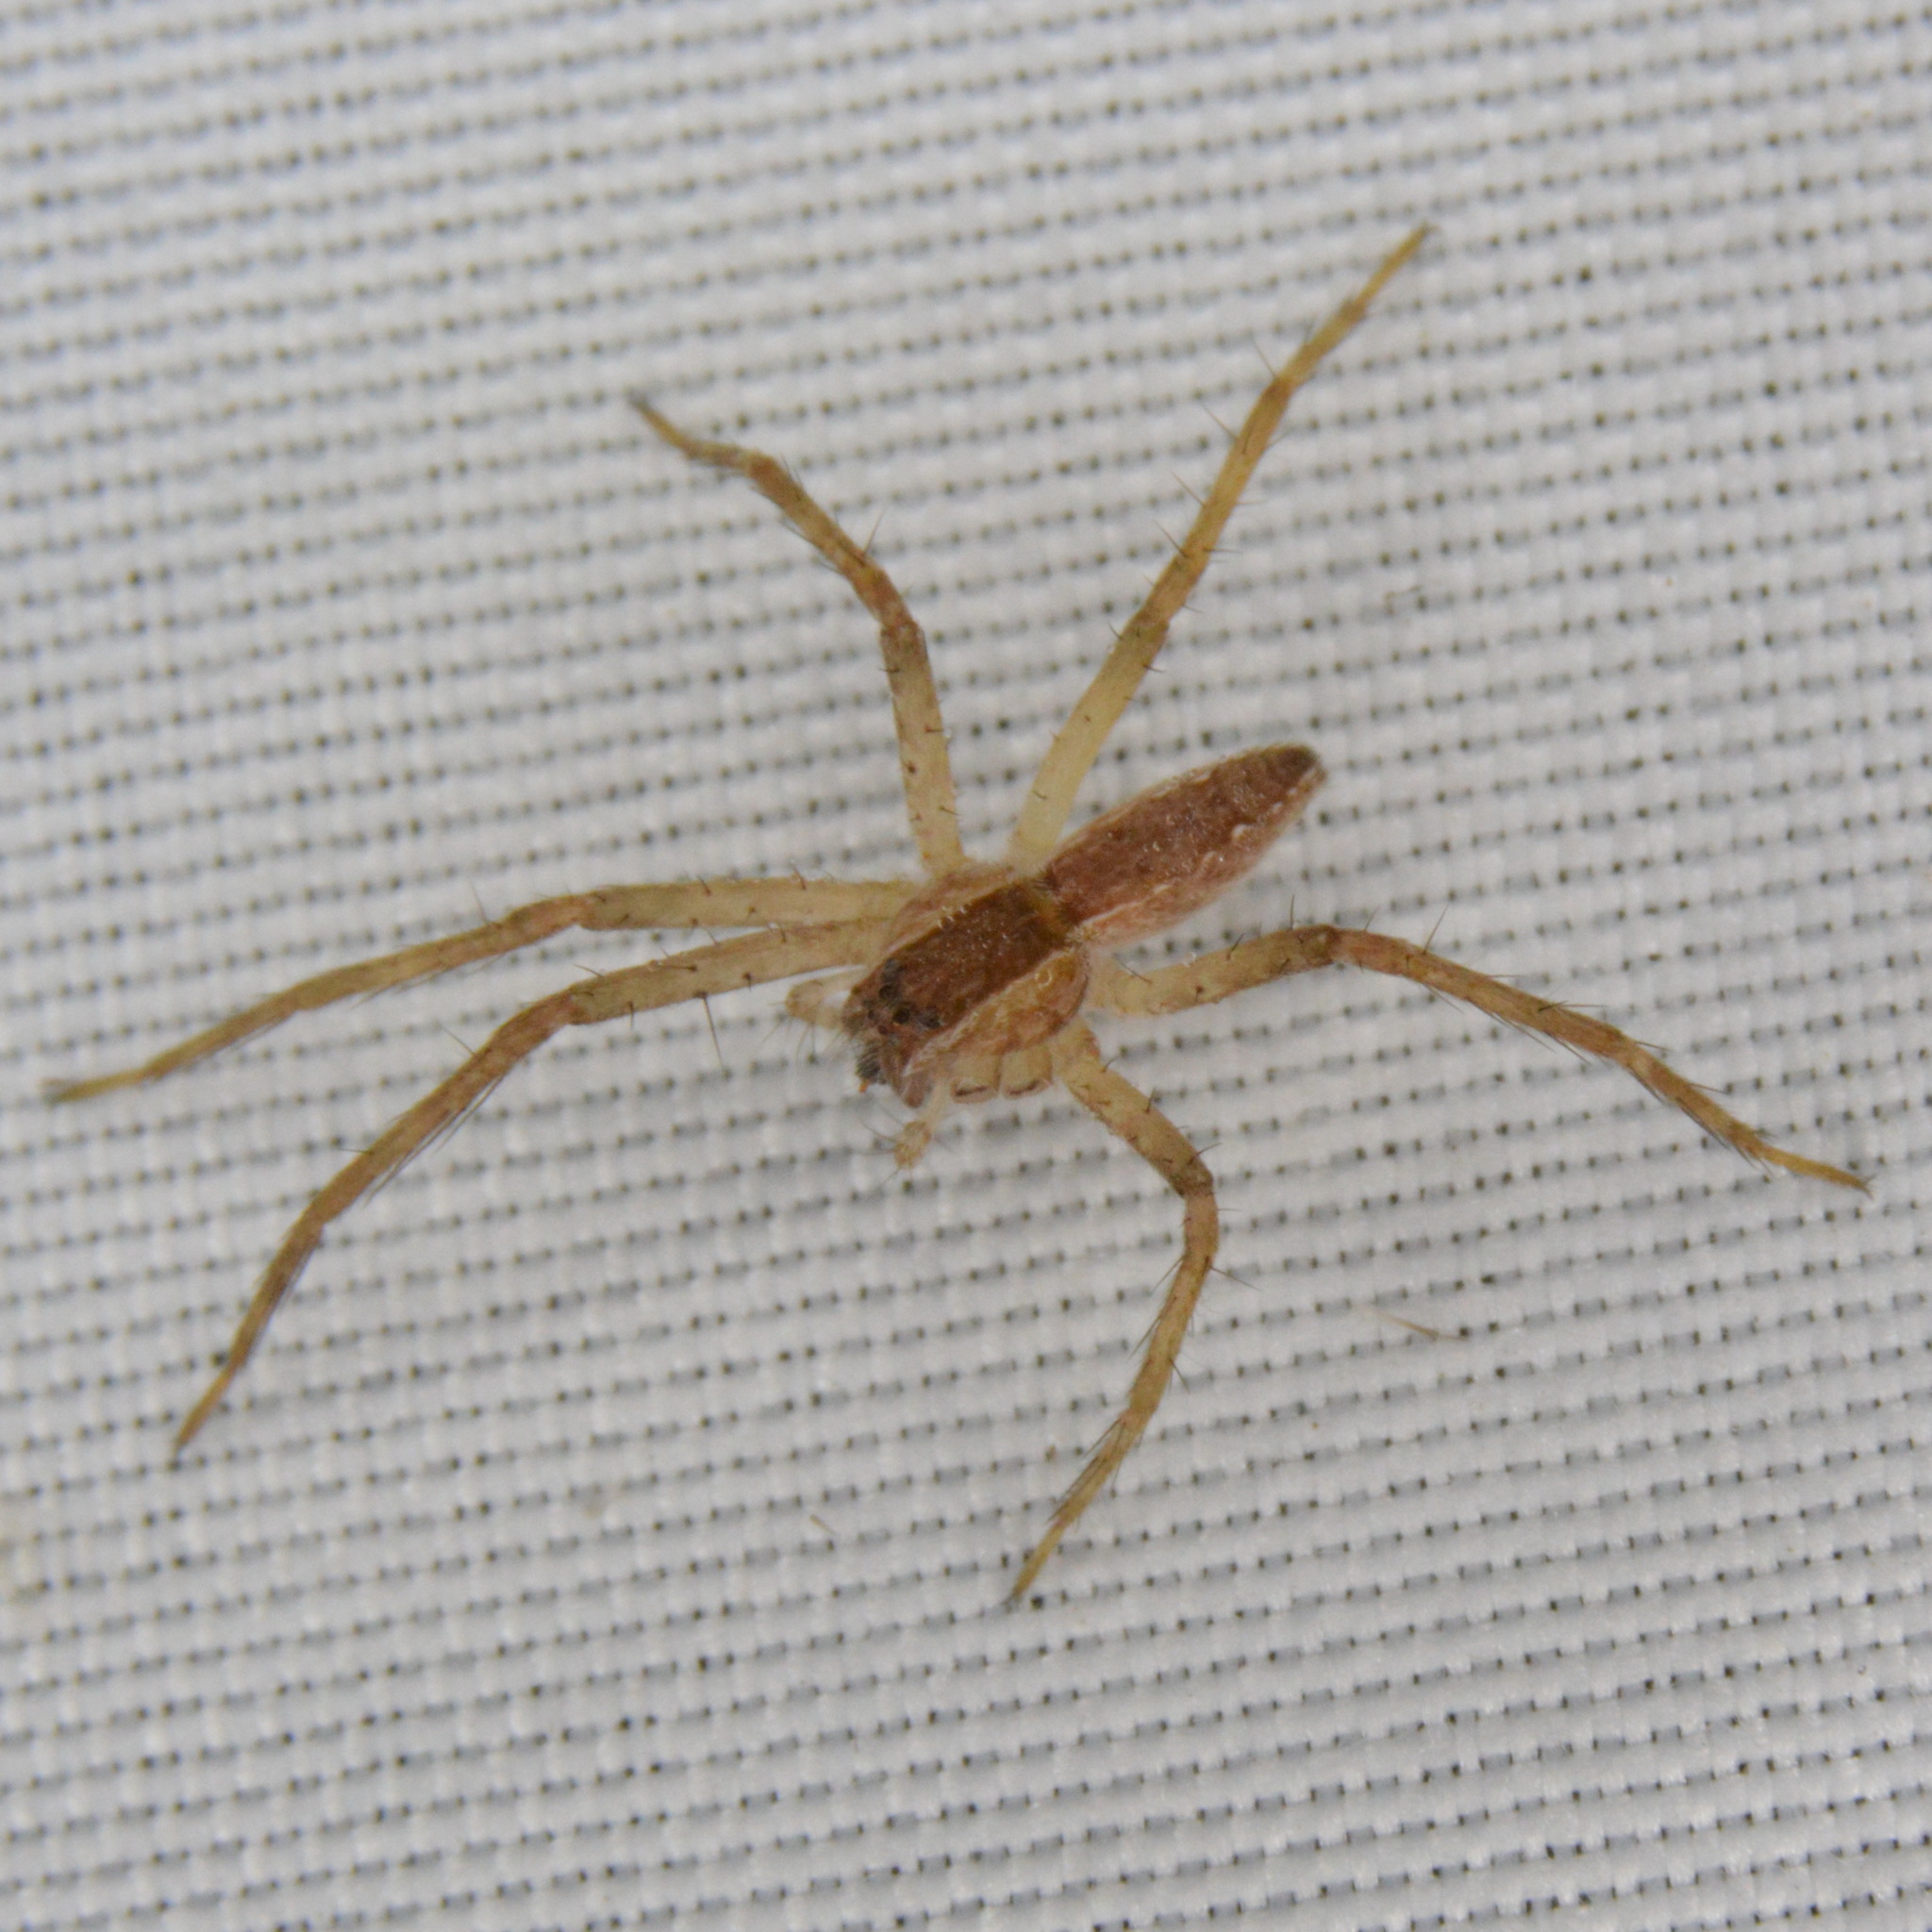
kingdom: Animalia
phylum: Arthropoda
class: Arachnida
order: Araneae
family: Pisauridae
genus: Pisaurina
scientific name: Pisaurina mira
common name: American nursery web spider
